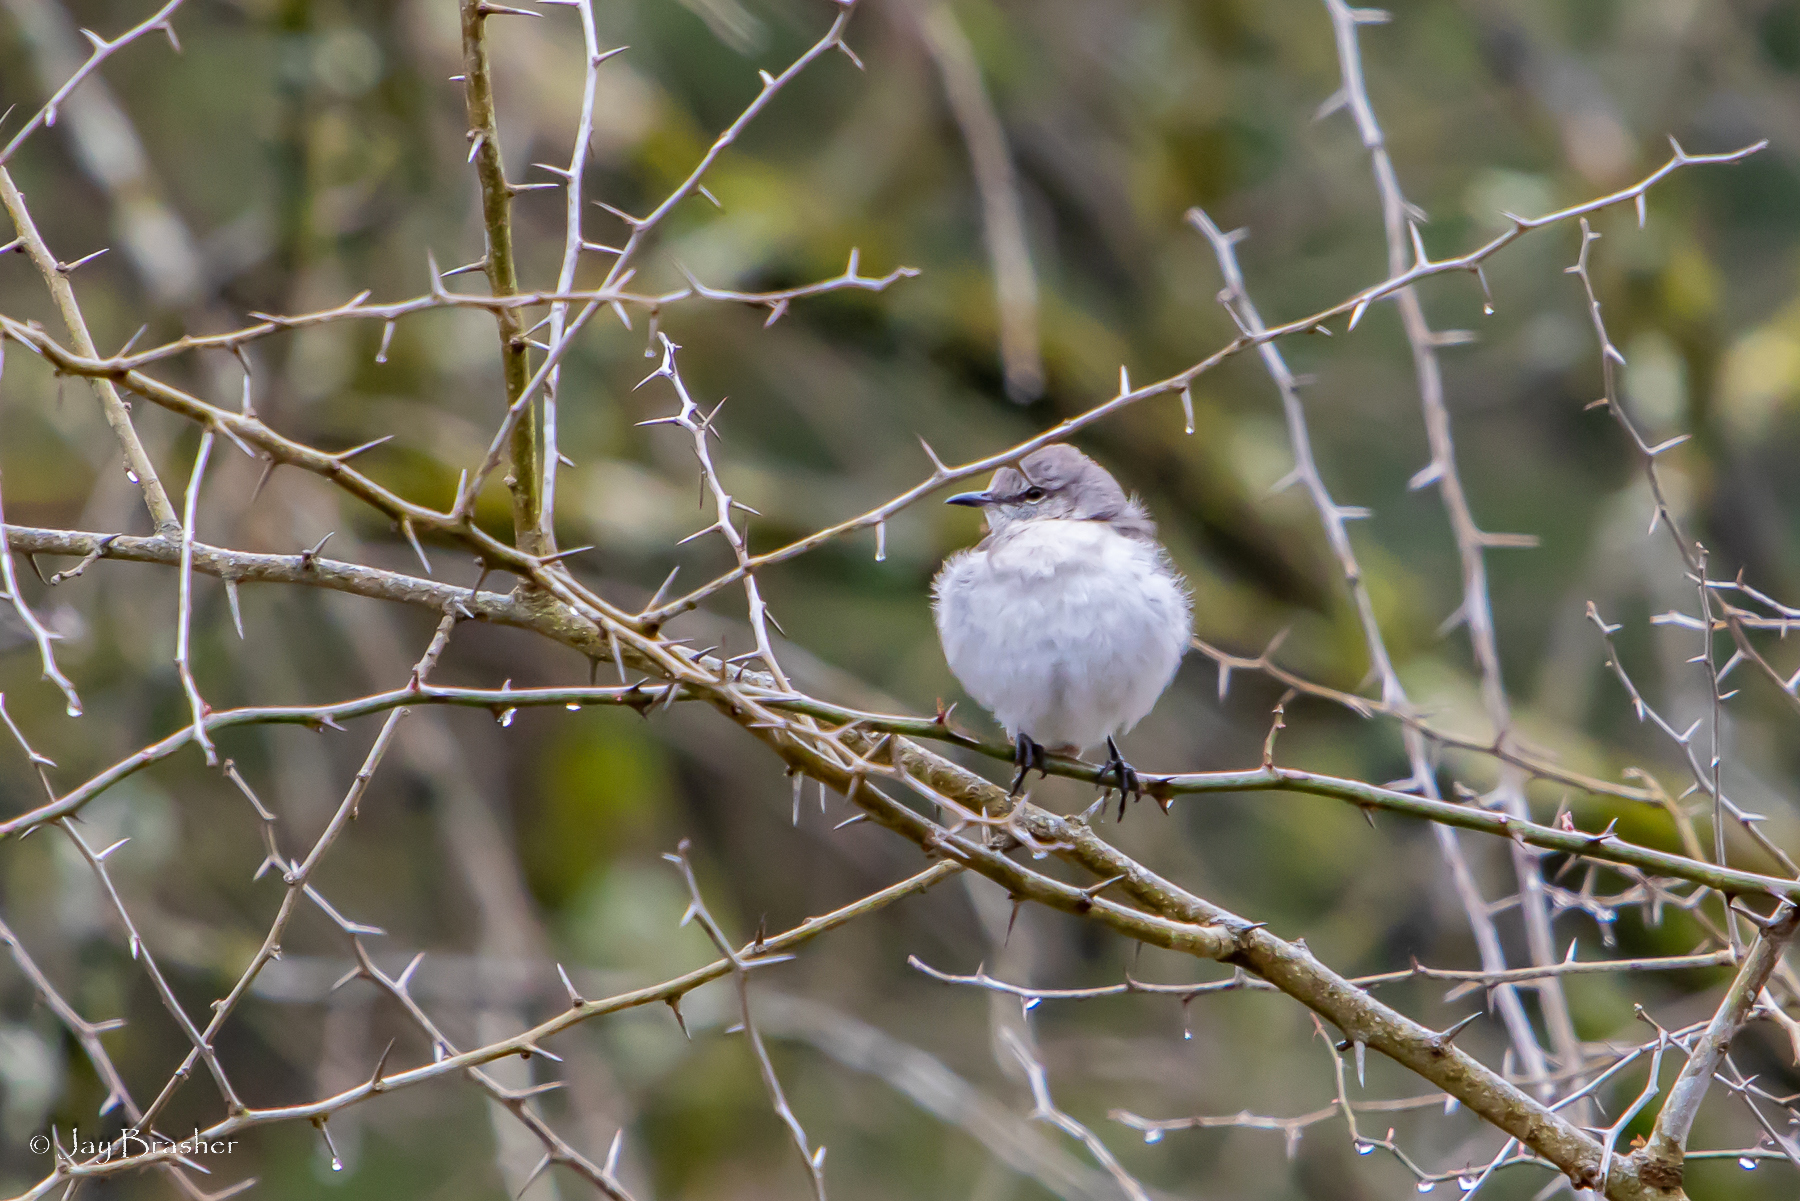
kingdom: Animalia
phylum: Chordata
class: Aves
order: Passeriformes
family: Mimidae
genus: Mimus
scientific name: Mimus polyglottos
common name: Northern mockingbird
